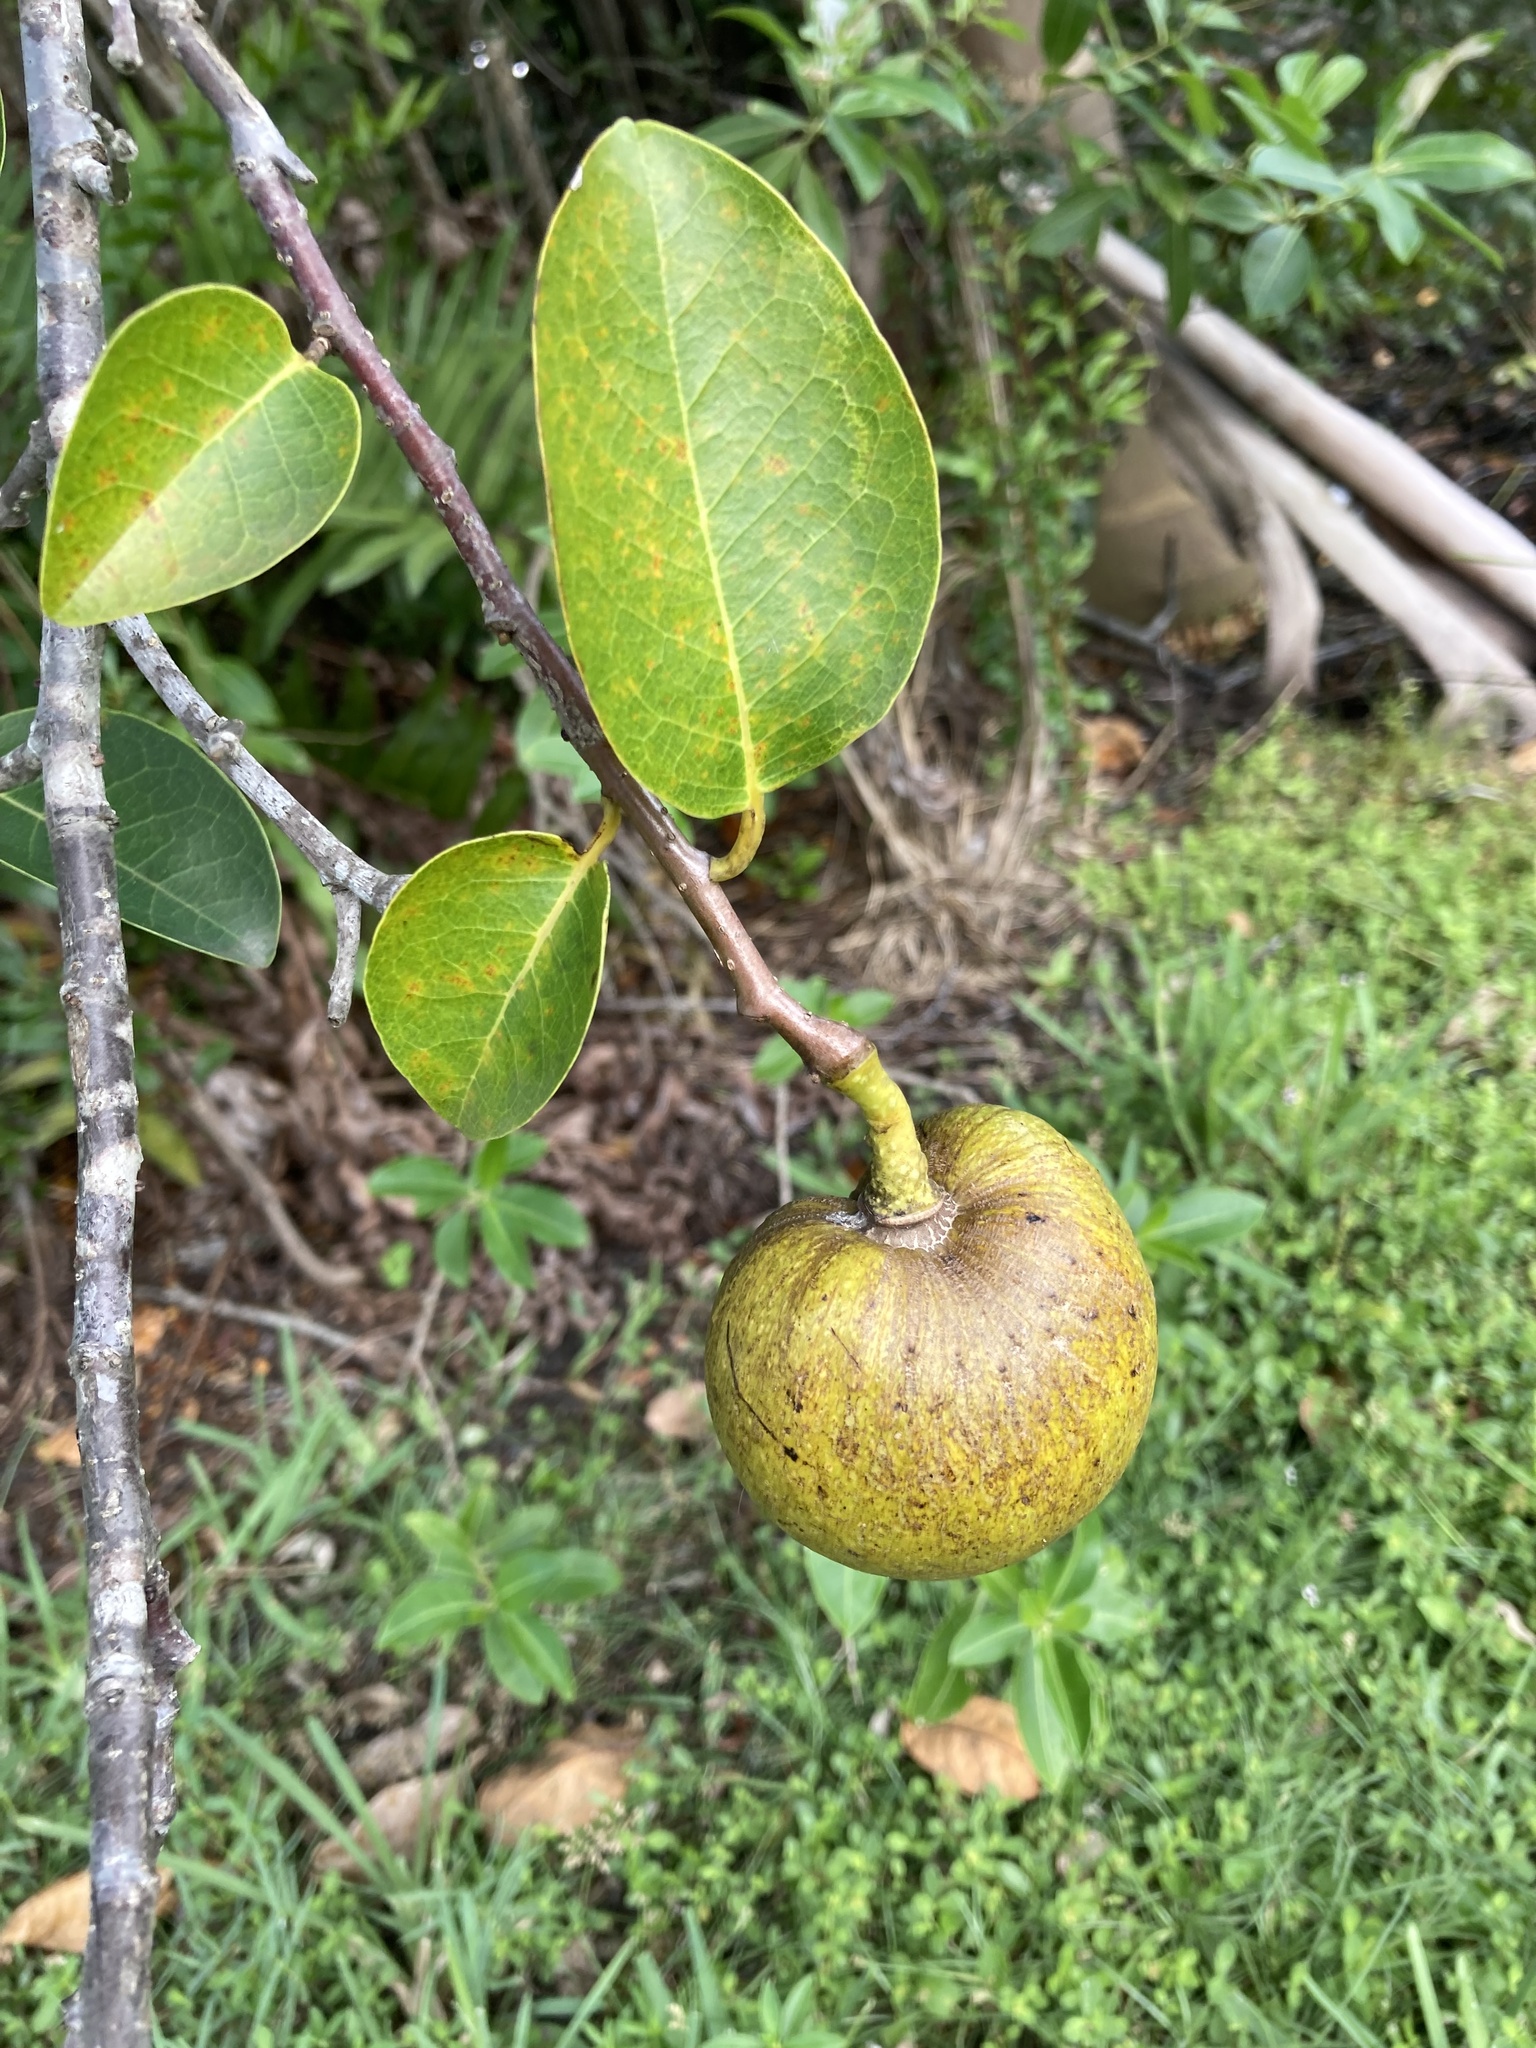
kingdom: Plantae
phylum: Tracheophyta
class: Magnoliopsida
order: Magnoliales
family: Annonaceae
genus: Annona
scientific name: Annona glabra
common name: Monkey apple
